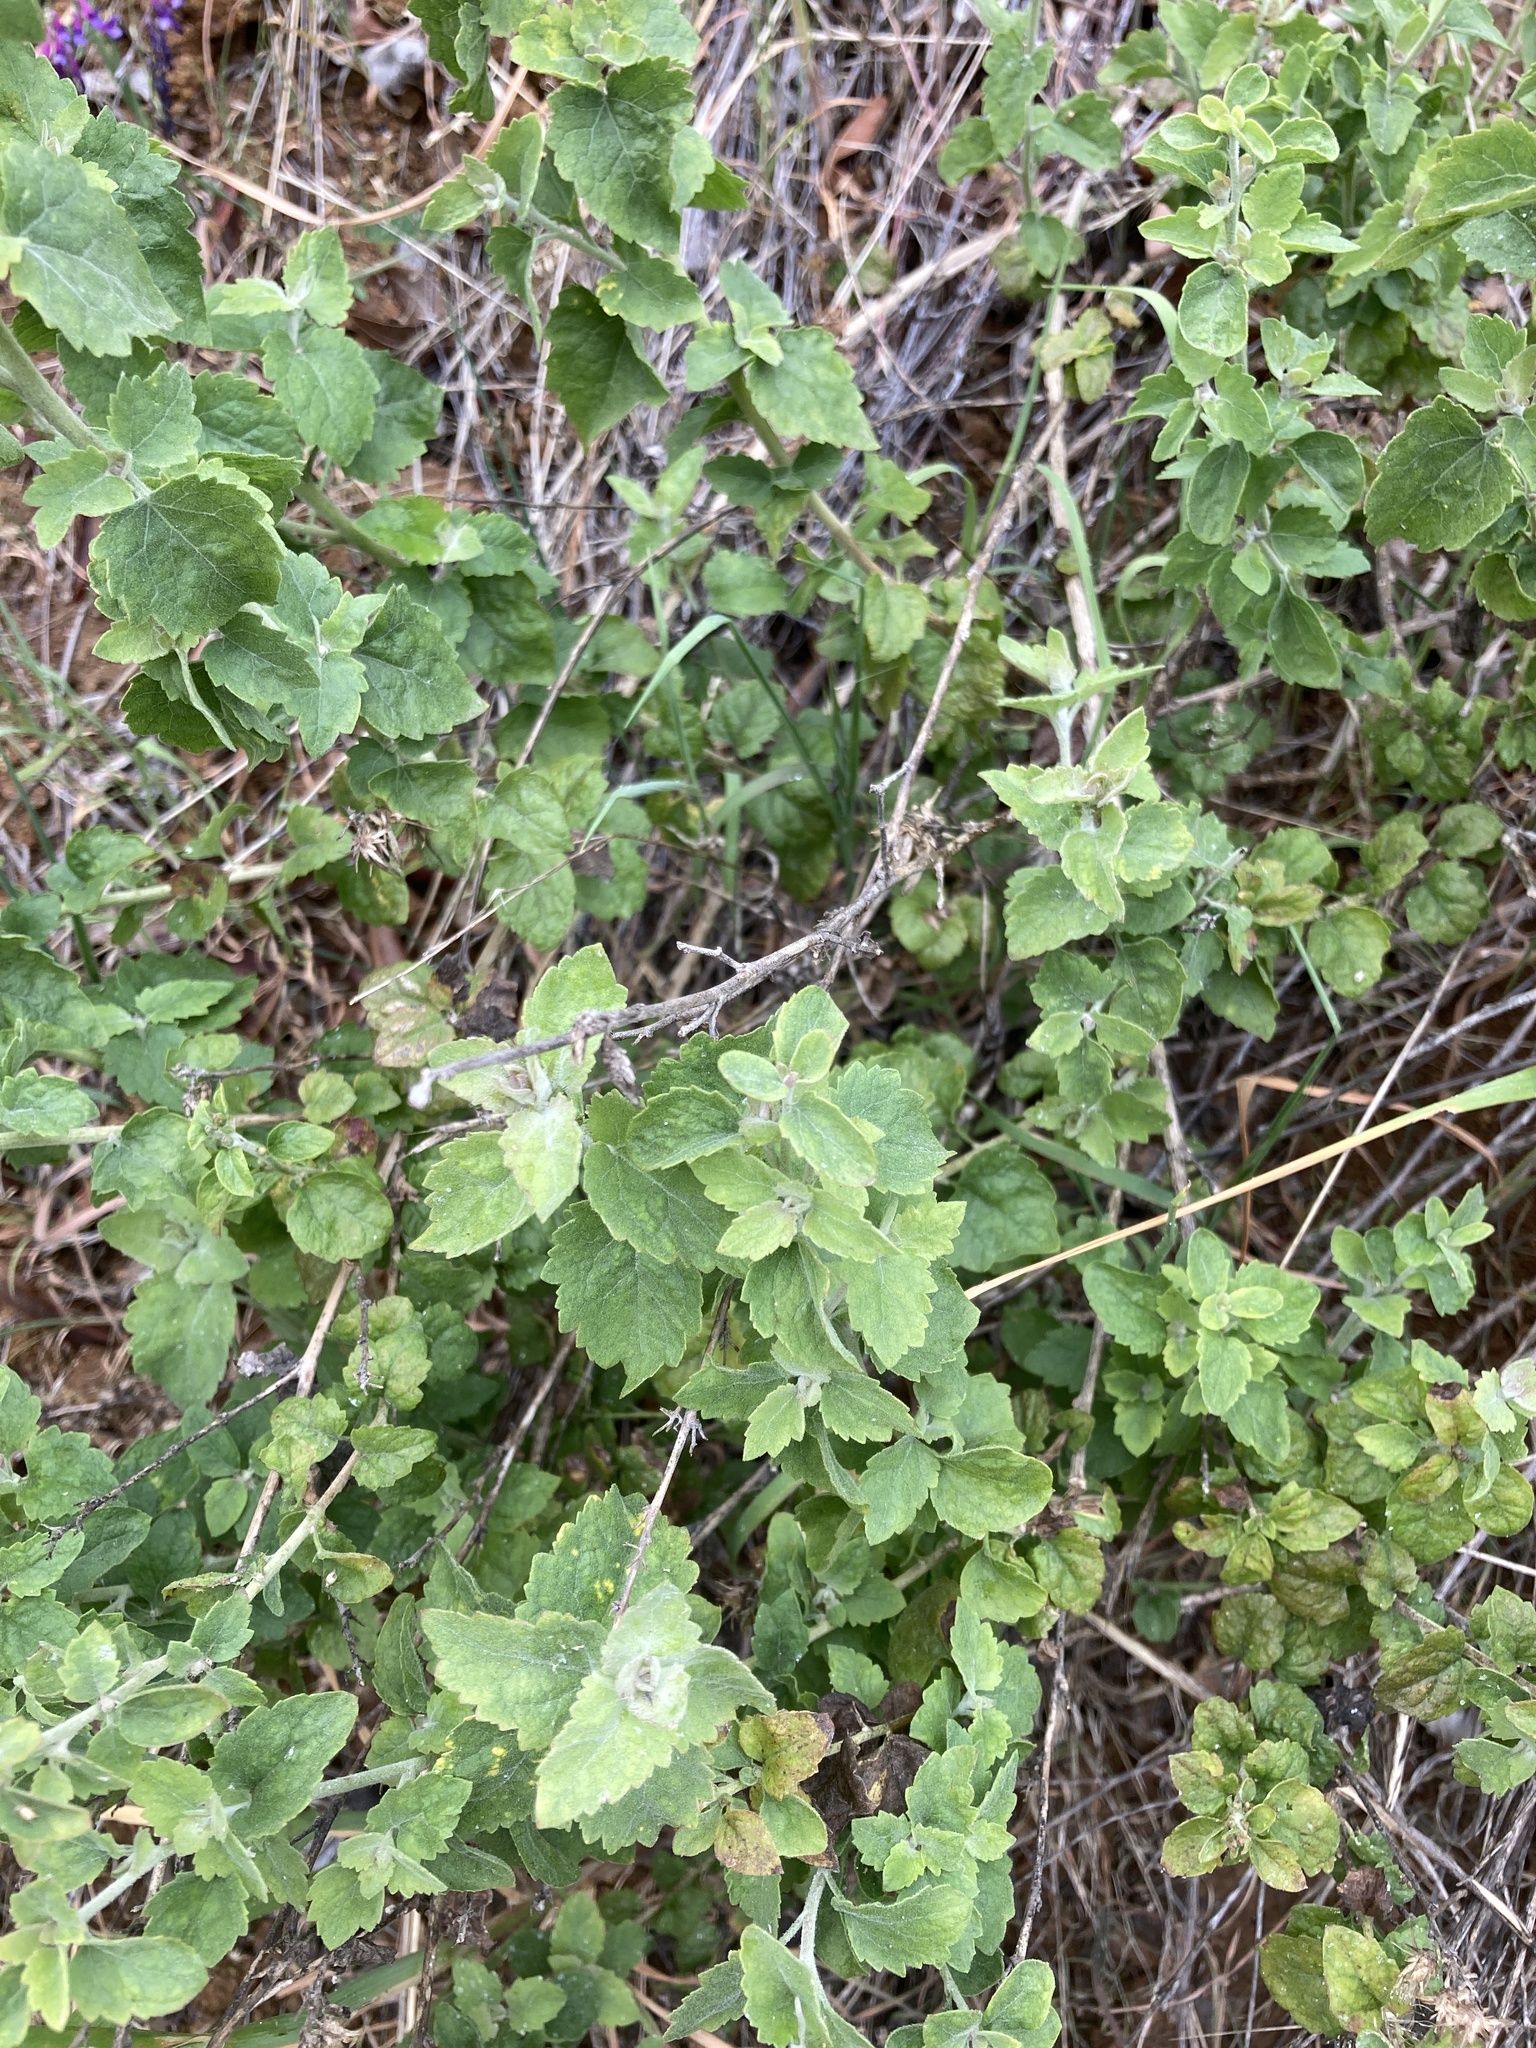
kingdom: Plantae
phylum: Tracheophyta
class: Magnoliopsida
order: Asterales
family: Asteraceae
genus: Brickellia
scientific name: Brickellia californica
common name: California brickellbush
